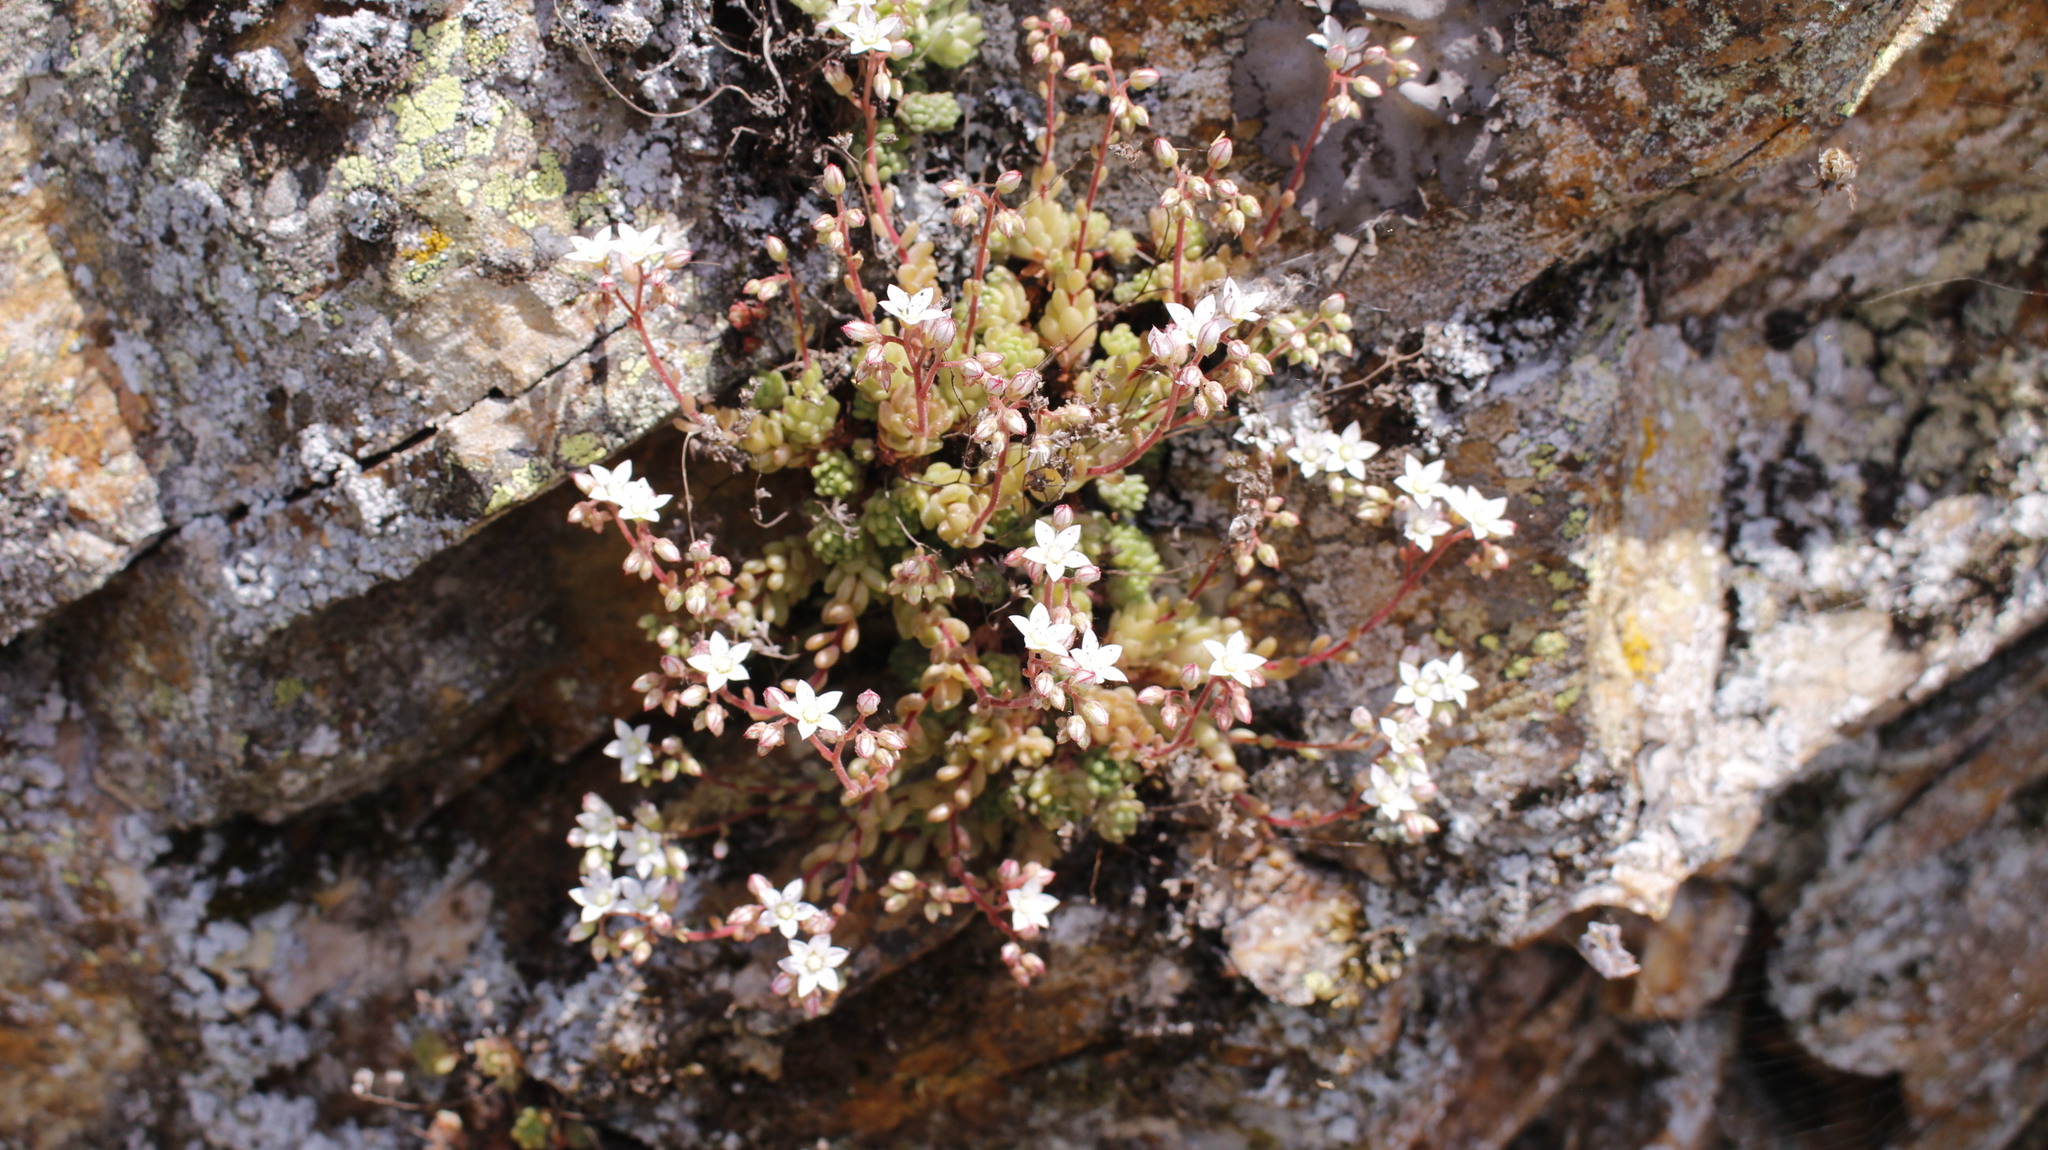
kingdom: Plantae
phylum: Tracheophyta
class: Magnoliopsida
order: Saxifragales
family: Crassulaceae
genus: Sedum
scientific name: Sedum hirsutum
